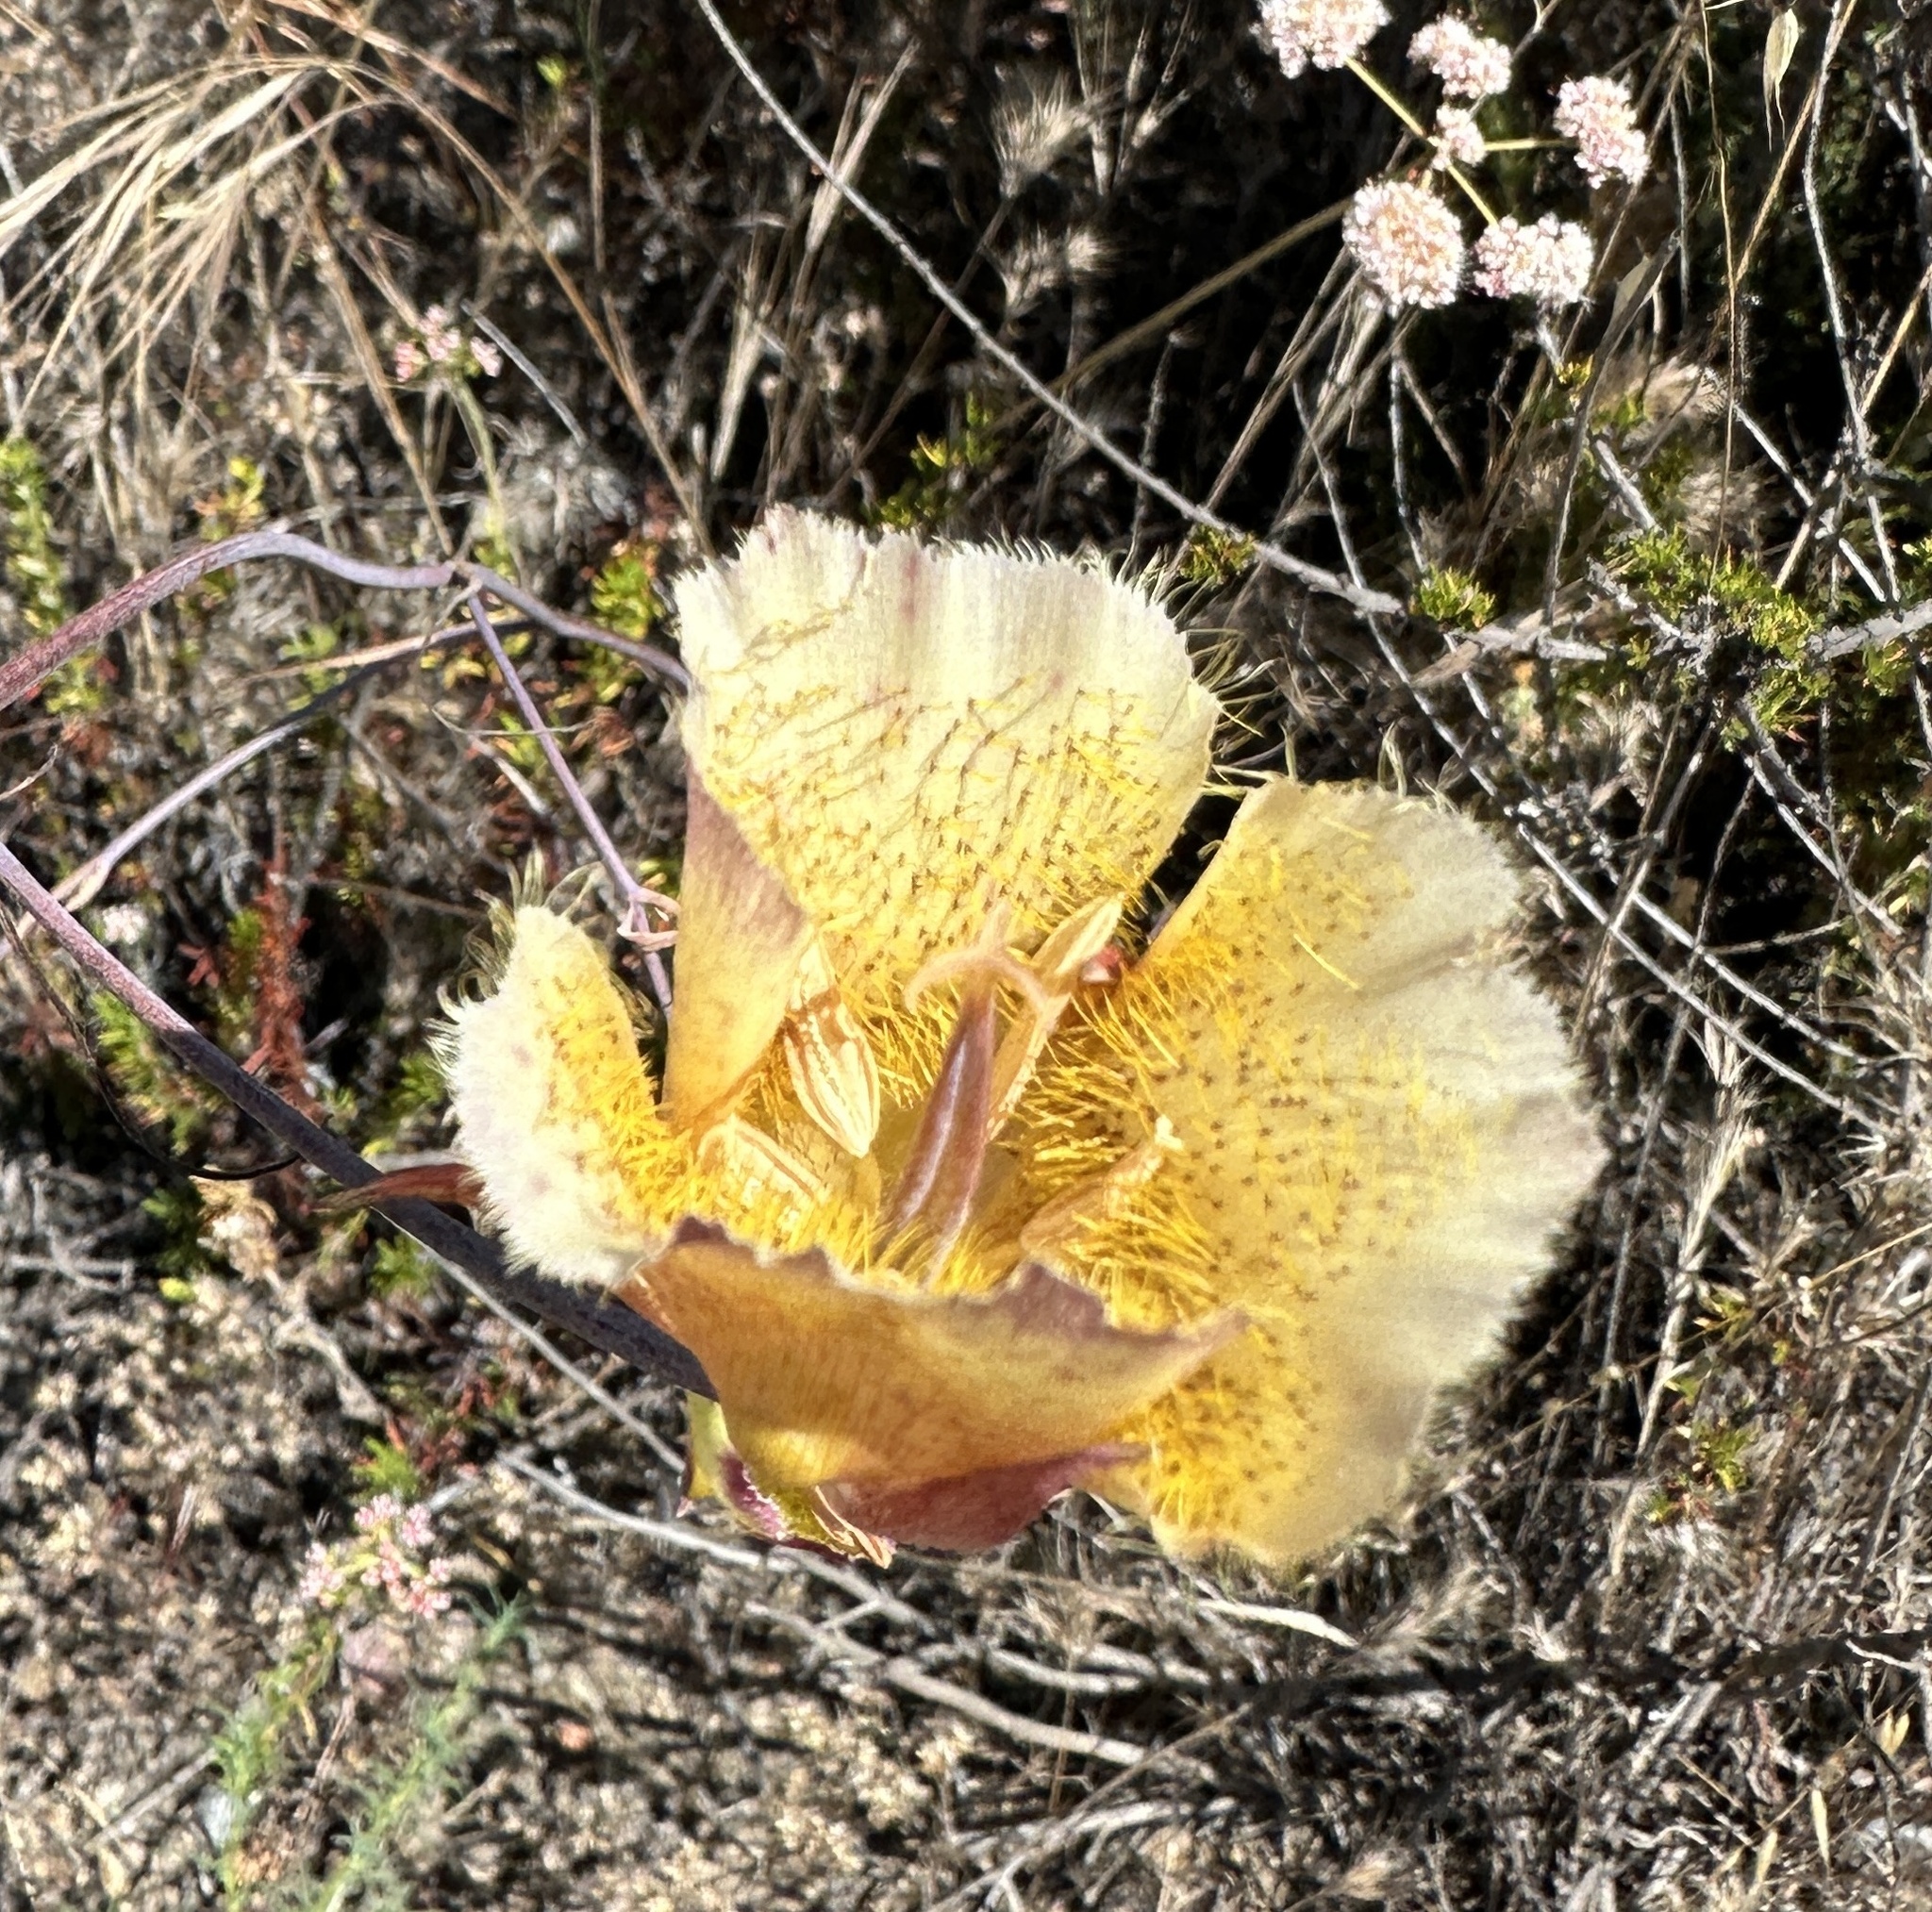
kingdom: Plantae
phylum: Tracheophyta
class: Liliopsida
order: Liliales
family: Liliaceae
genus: Calochortus
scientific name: Calochortus weedii
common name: Weed's mariposa-lily
